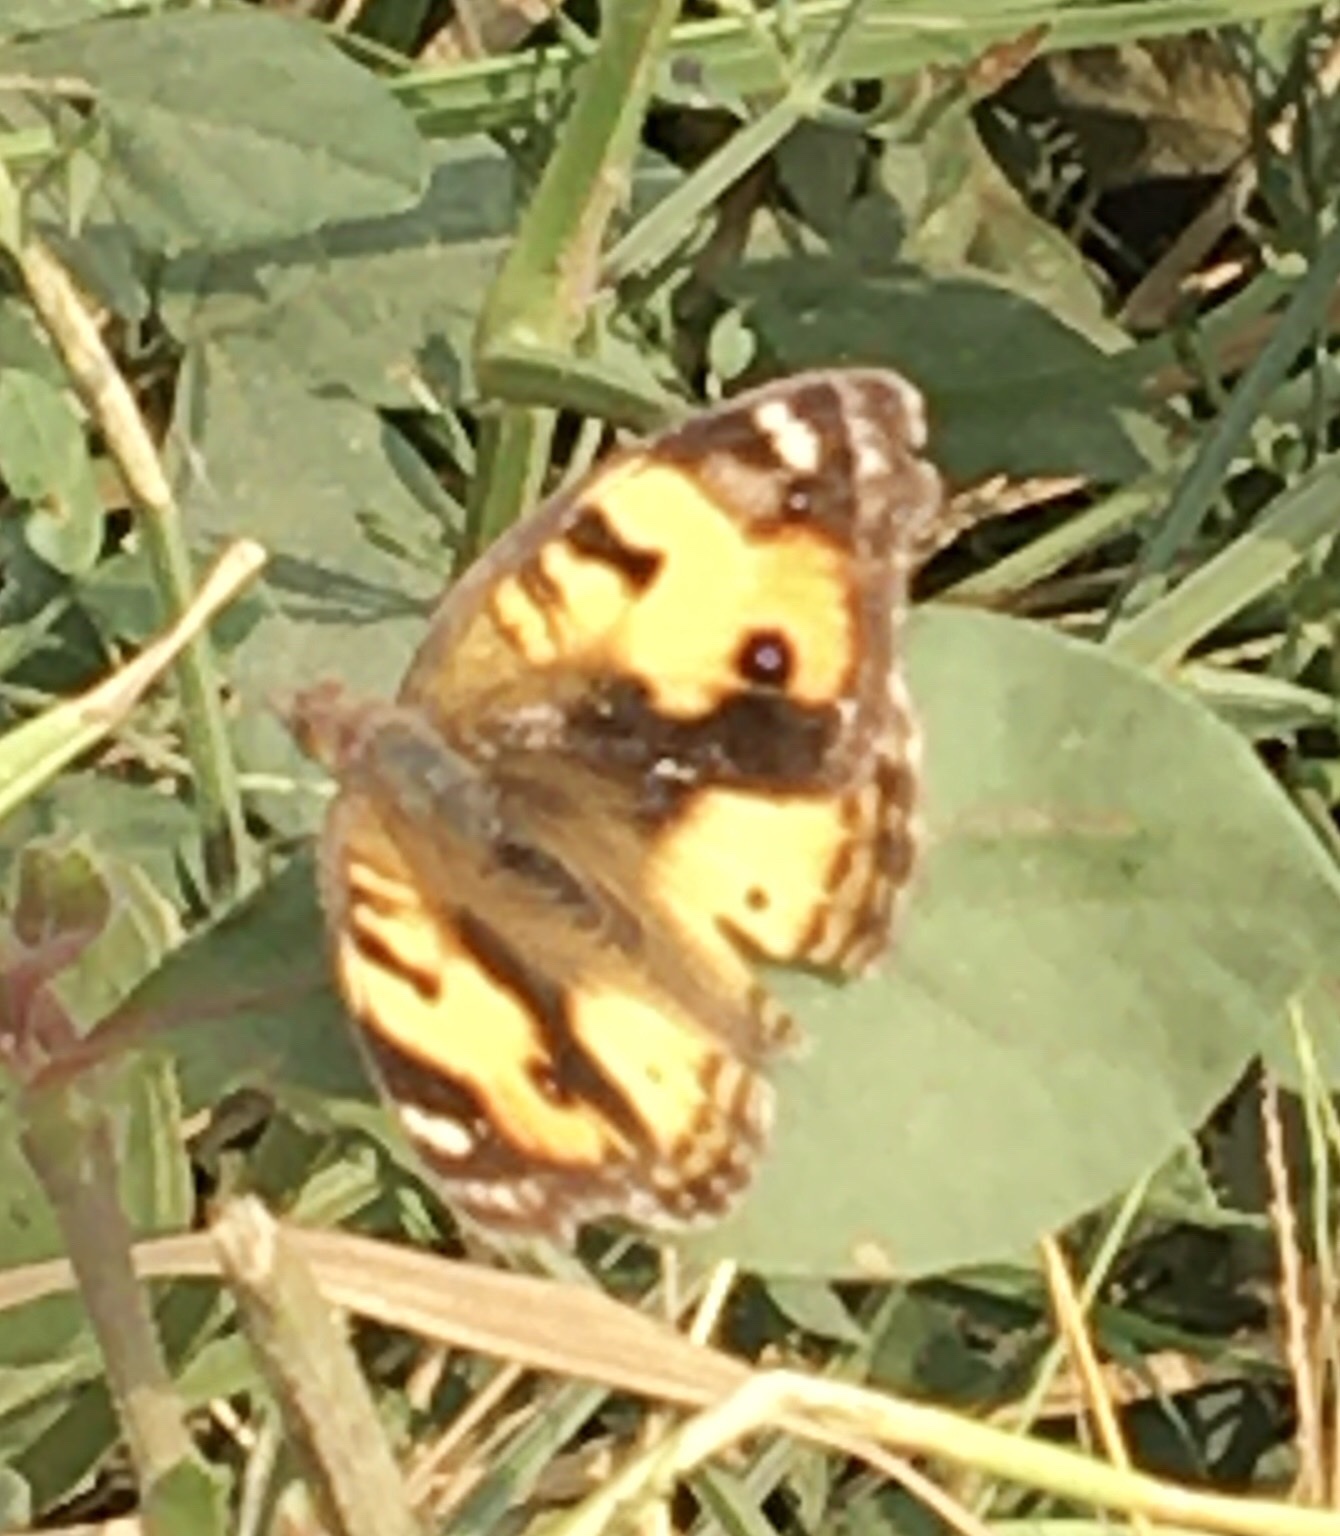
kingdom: Animalia
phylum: Arthropoda
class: Insecta
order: Lepidoptera
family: Nymphalidae
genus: Junonia
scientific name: Junonia hierta
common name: Yellow pansy
